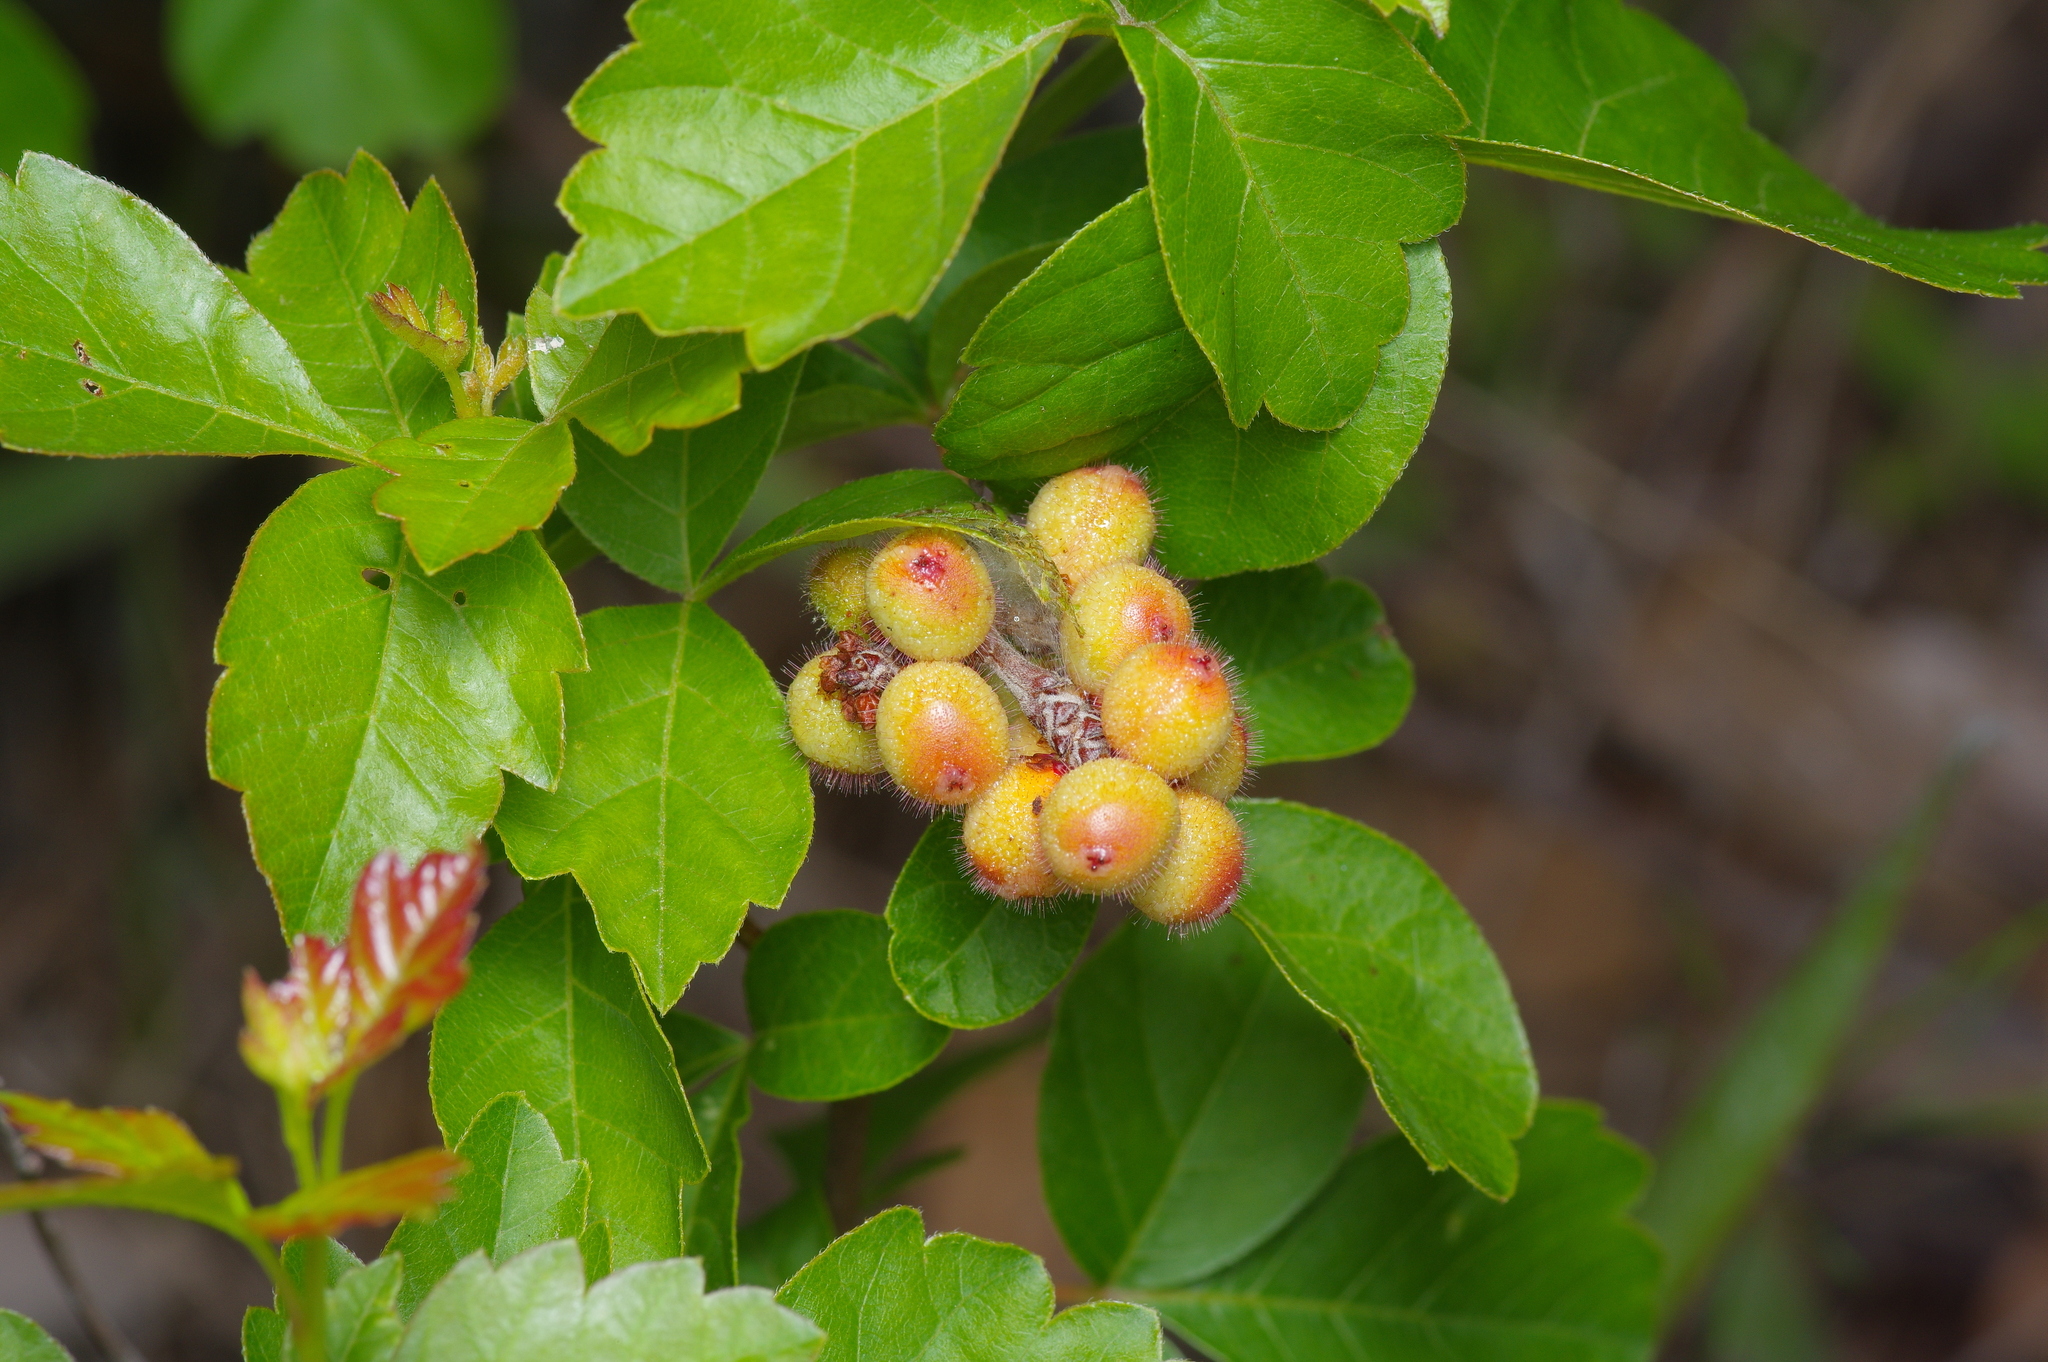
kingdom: Plantae
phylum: Tracheophyta
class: Magnoliopsida
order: Sapindales
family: Anacardiaceae
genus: Rhus
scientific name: Rhus aromatica
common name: Aromatic sumac
